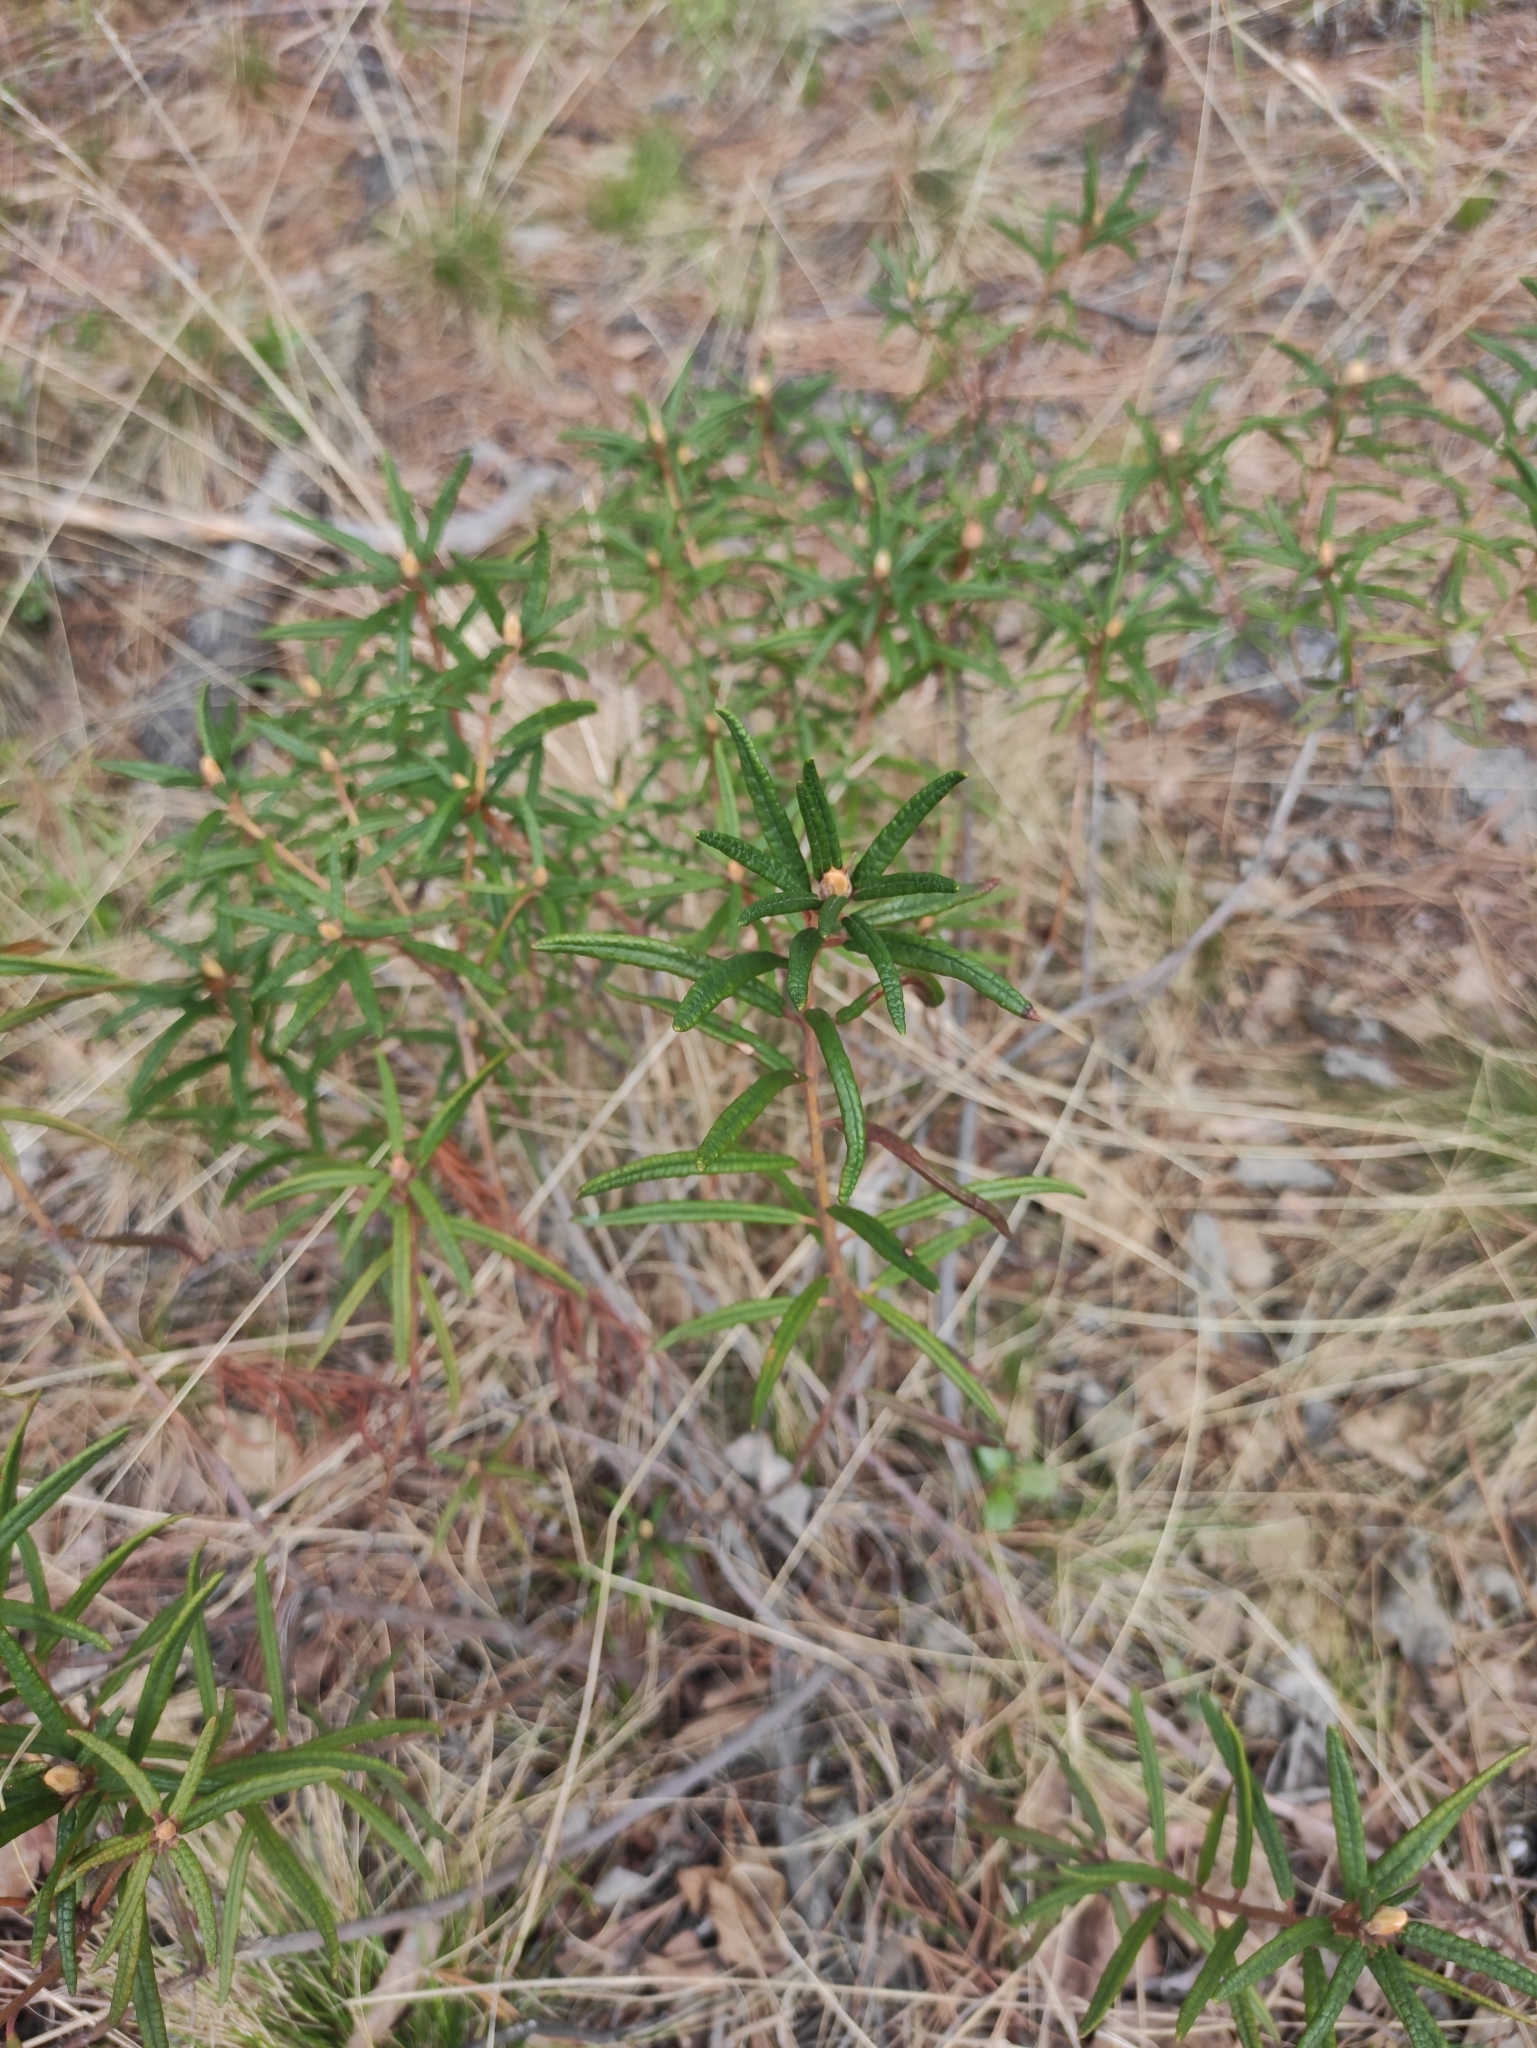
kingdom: Plantae
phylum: Tracheophyta
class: Magnoliopsida
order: Ericales
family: Ericaceae
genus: Rhododendron
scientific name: Rhododendron tomentosum
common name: Marsh labrador tea
